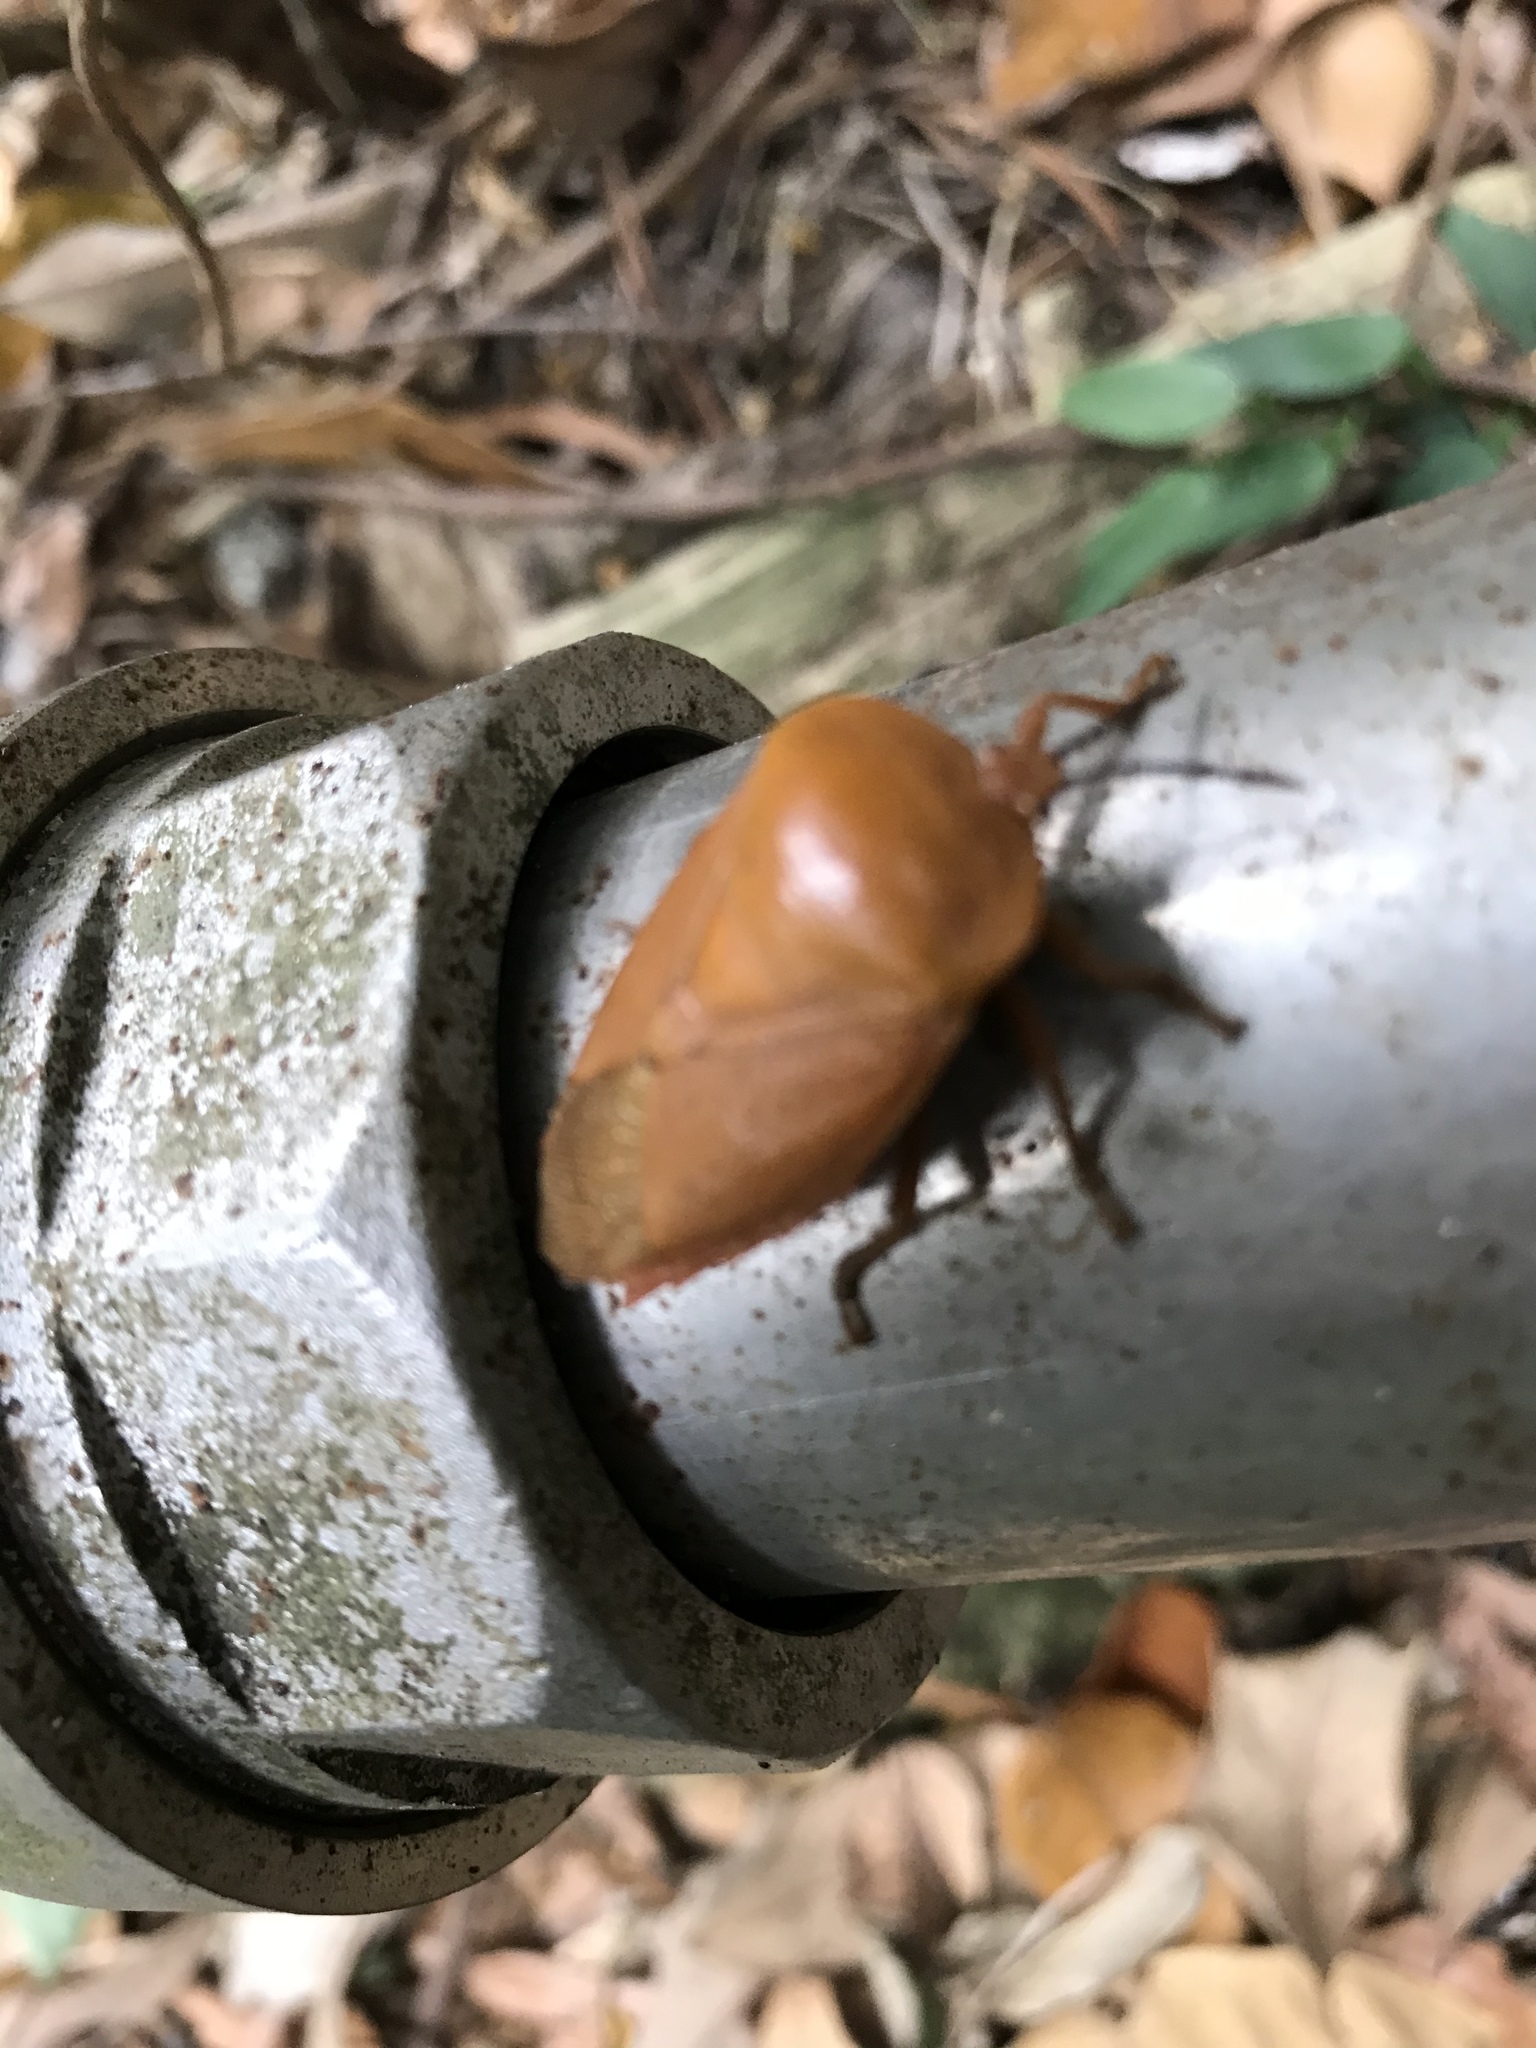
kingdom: Animalia
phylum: Arthropoda
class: Insecta
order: Hemiptera
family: Tessaratomidae
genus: Tessaratoma
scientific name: Tessaratoma papillosa
